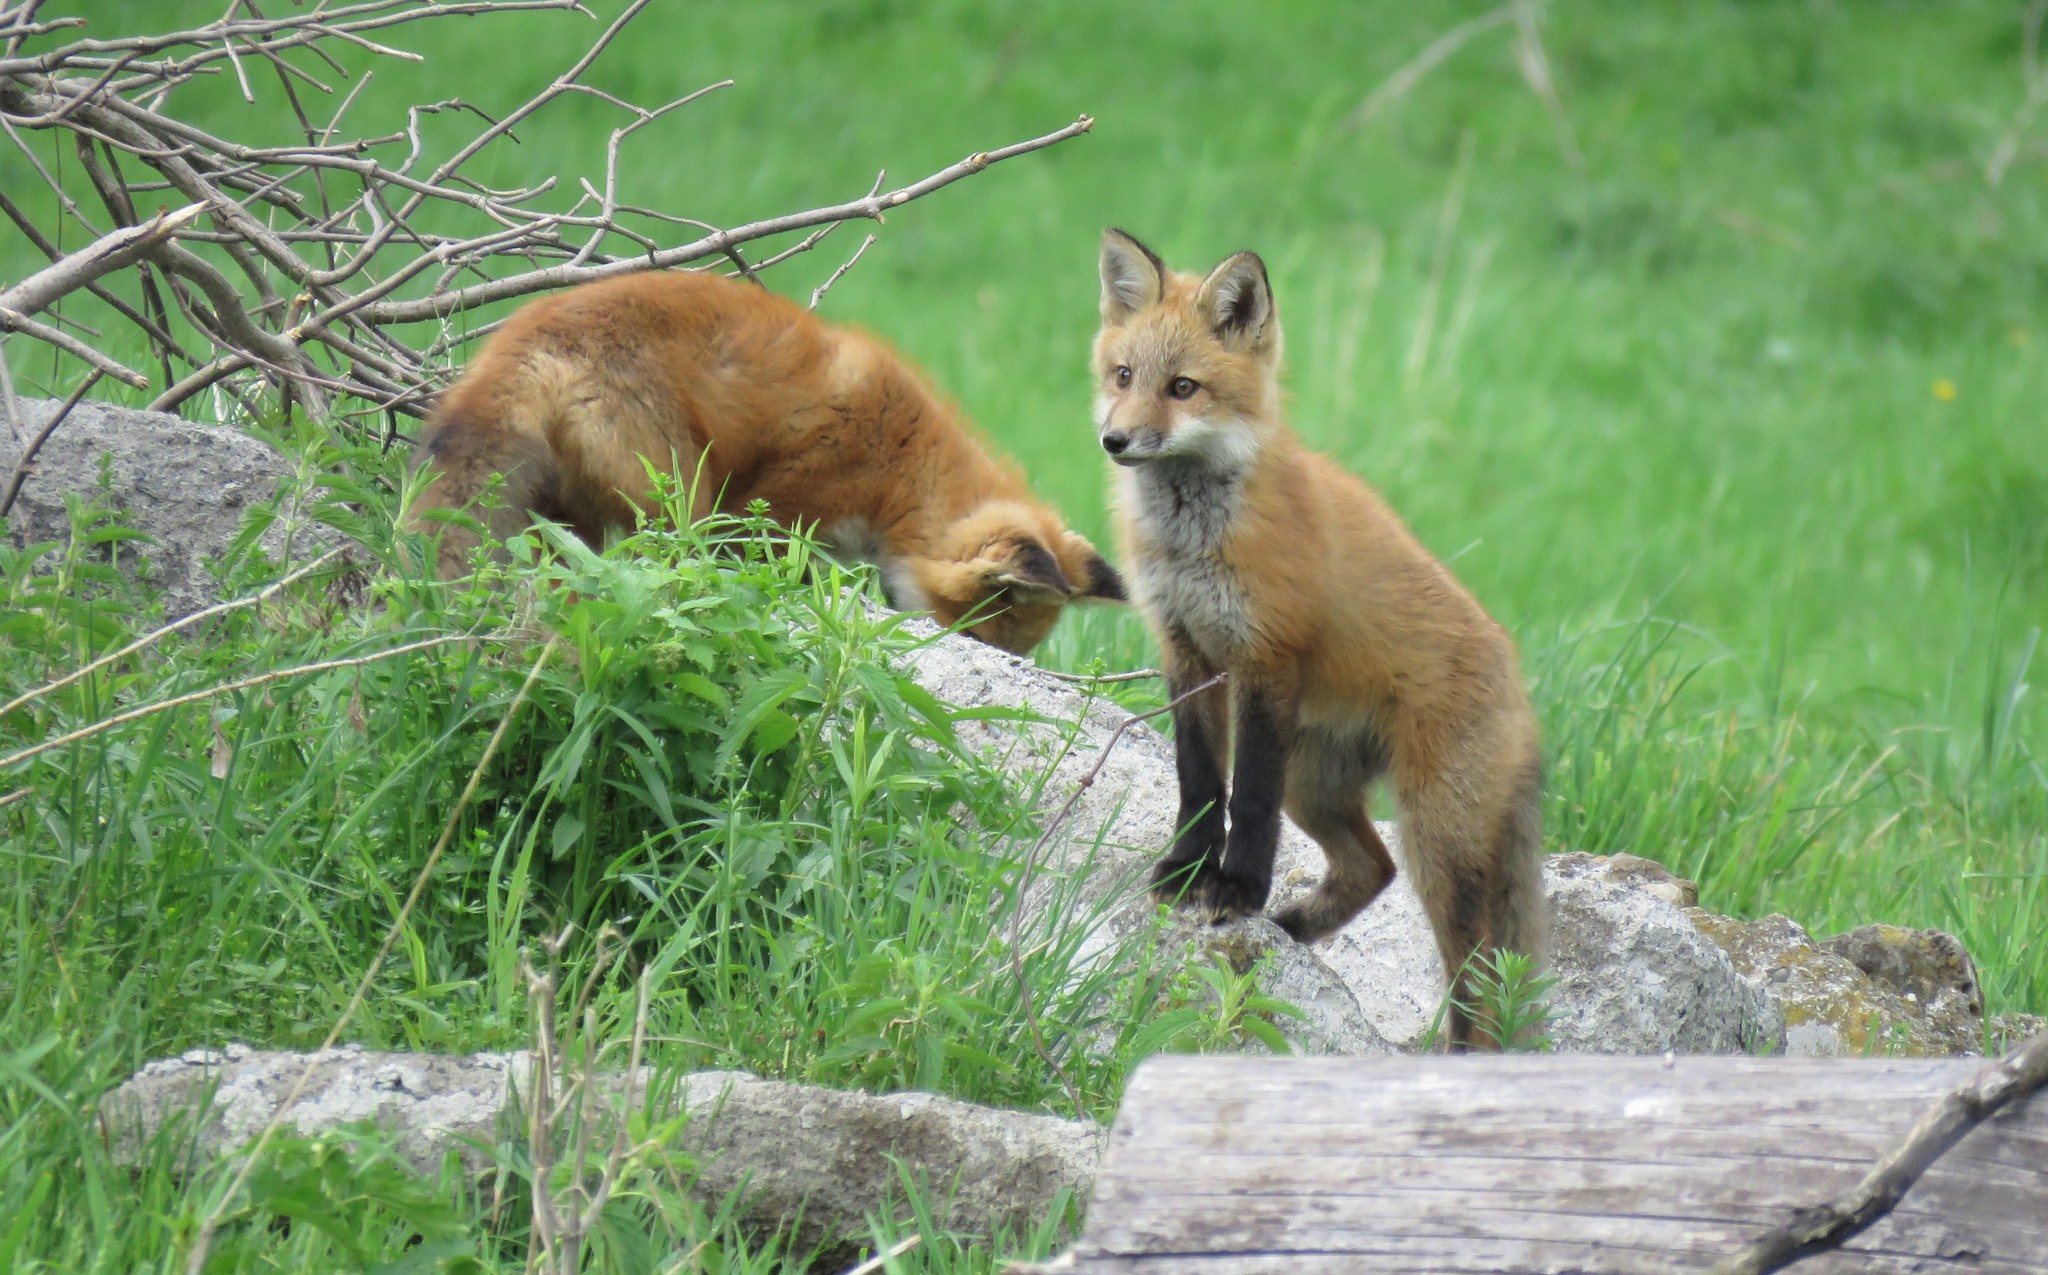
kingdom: Animalia
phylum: Chordata
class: Mammalia
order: Carnivora
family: Canidae
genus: Vulpes
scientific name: Vulpes vulpes
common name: Red fox
